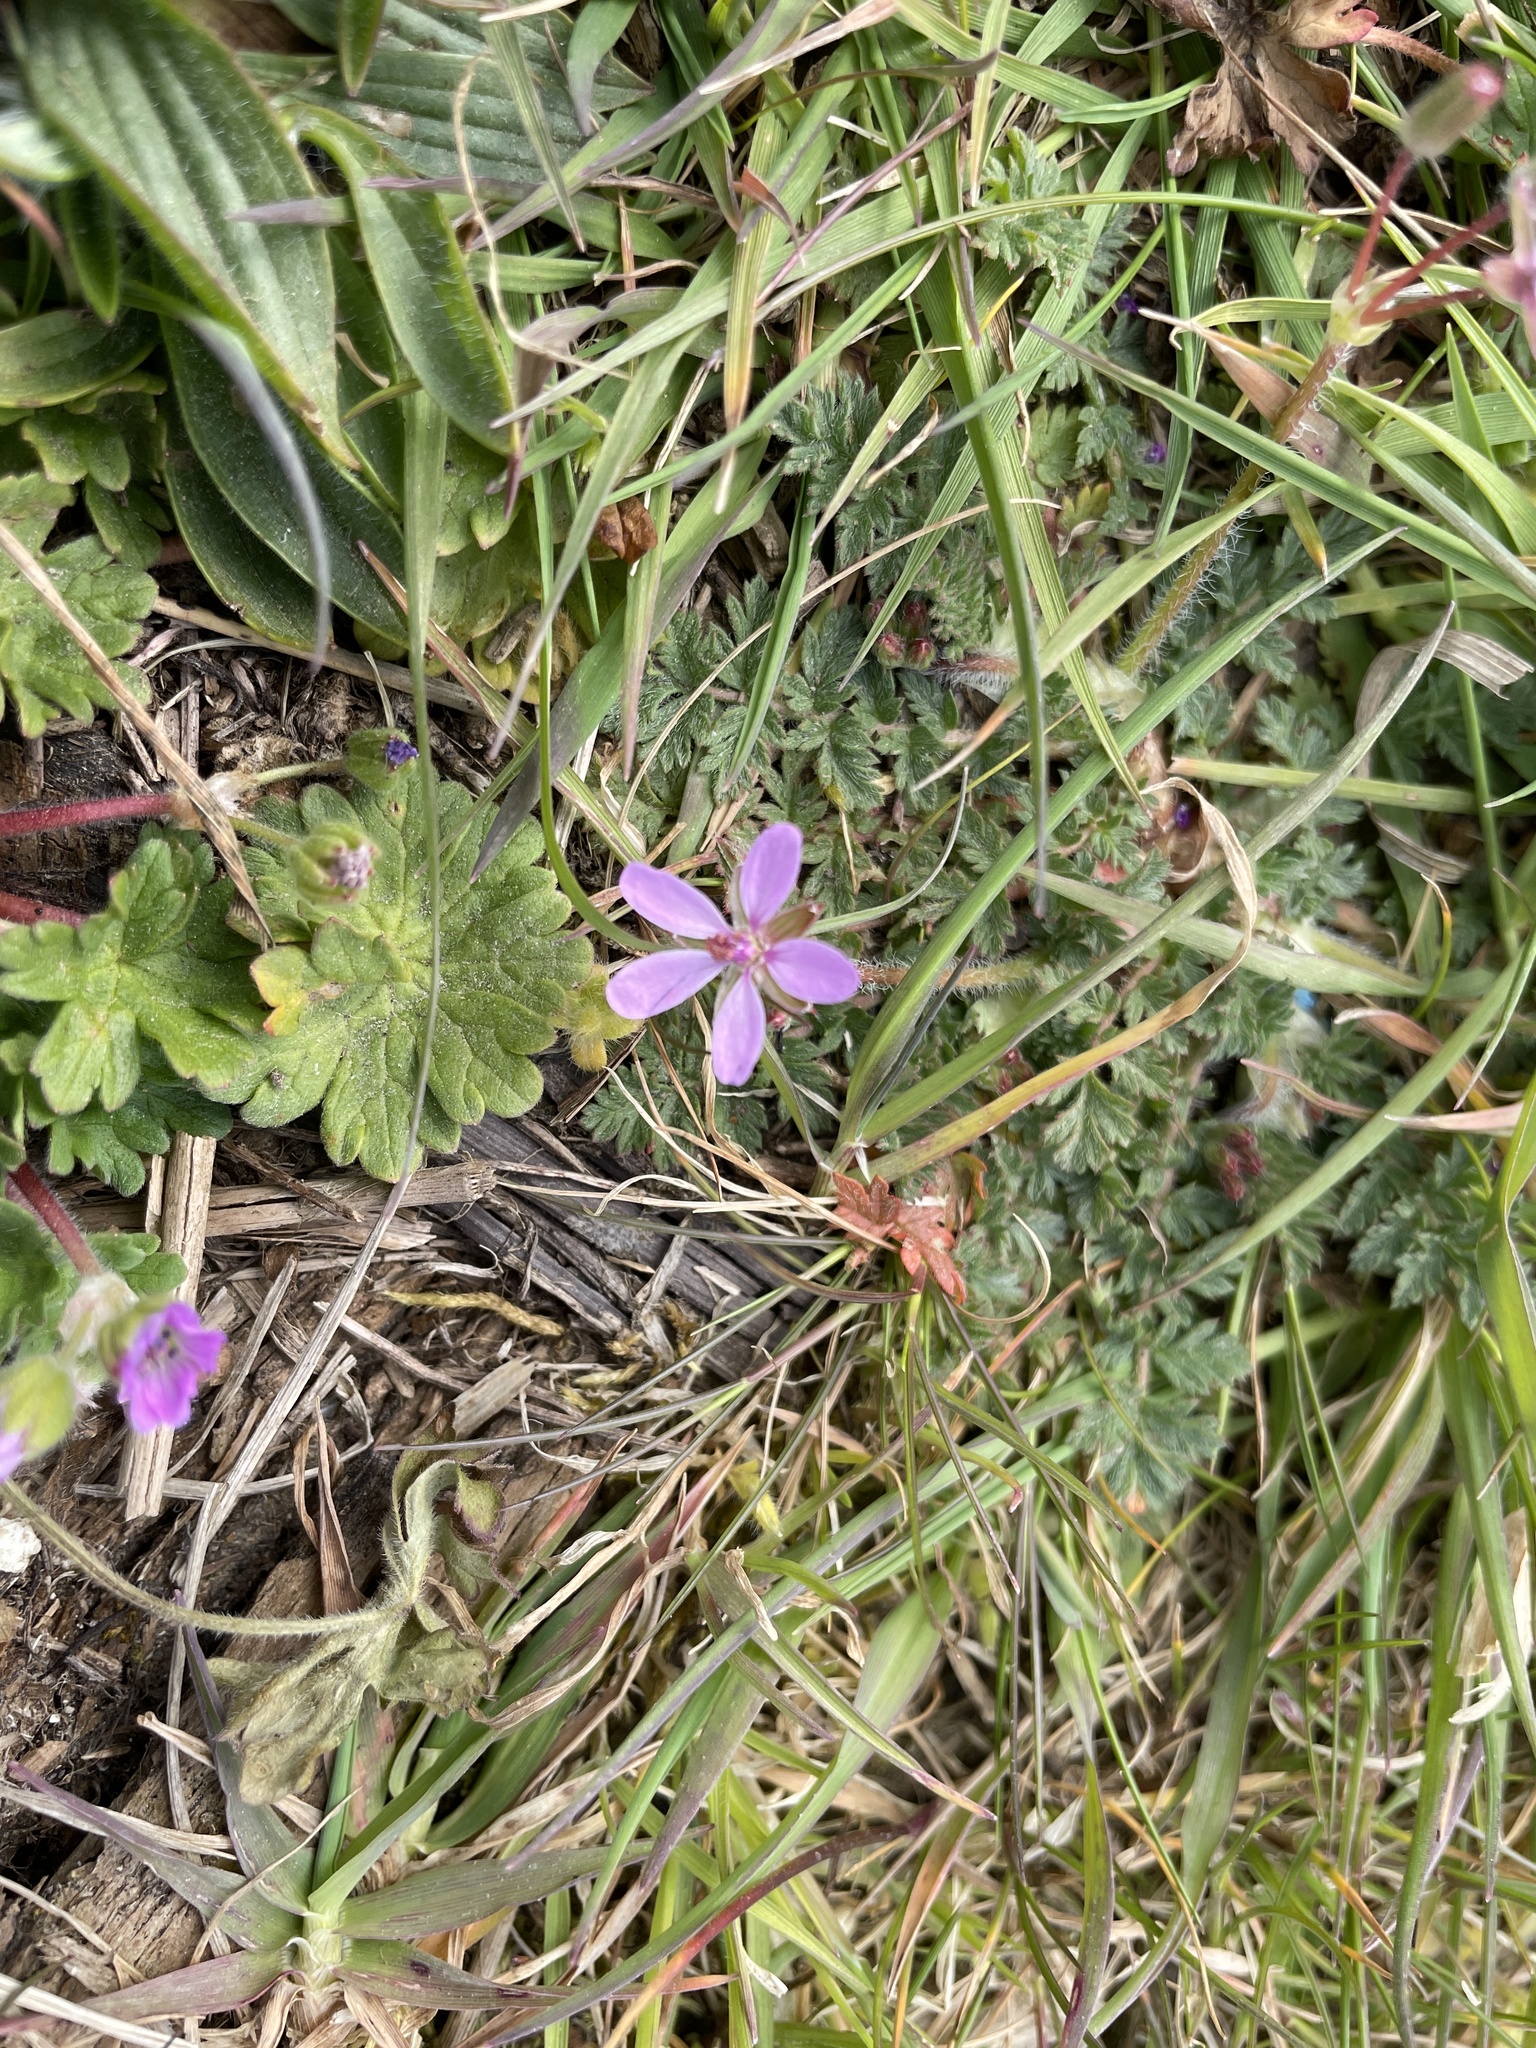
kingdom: Plantae
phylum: Tracheophyta
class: Magnoliopsida
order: Geraniales
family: Geraniaceae
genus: Erodium
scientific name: Erodium cicutarium
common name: Common stork's-bill
